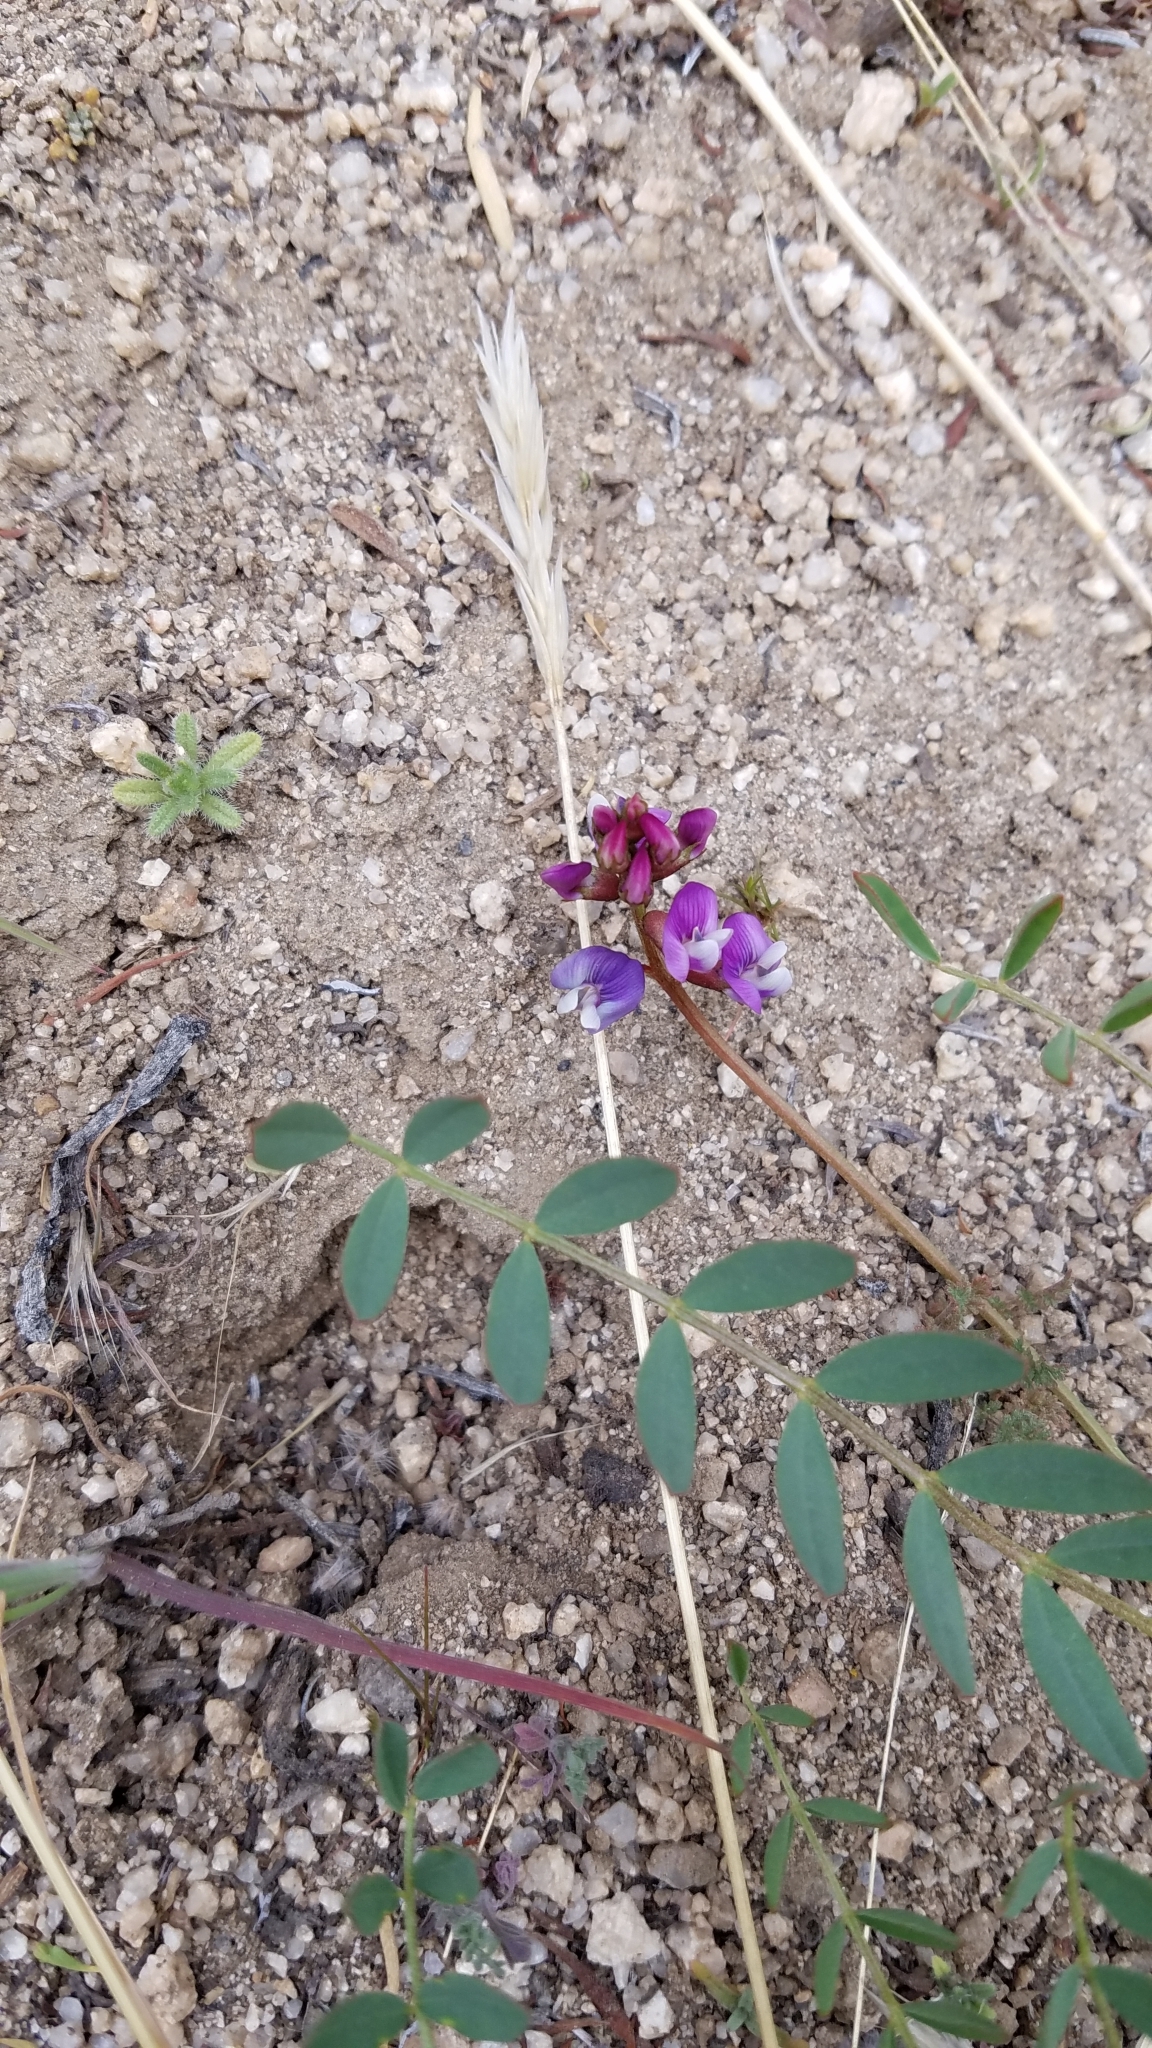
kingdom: Plantae
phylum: Tracheophyta
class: Magnoliopsida
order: Fabales
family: Fabaceae
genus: Astragalus
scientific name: Astragalus palmeri
